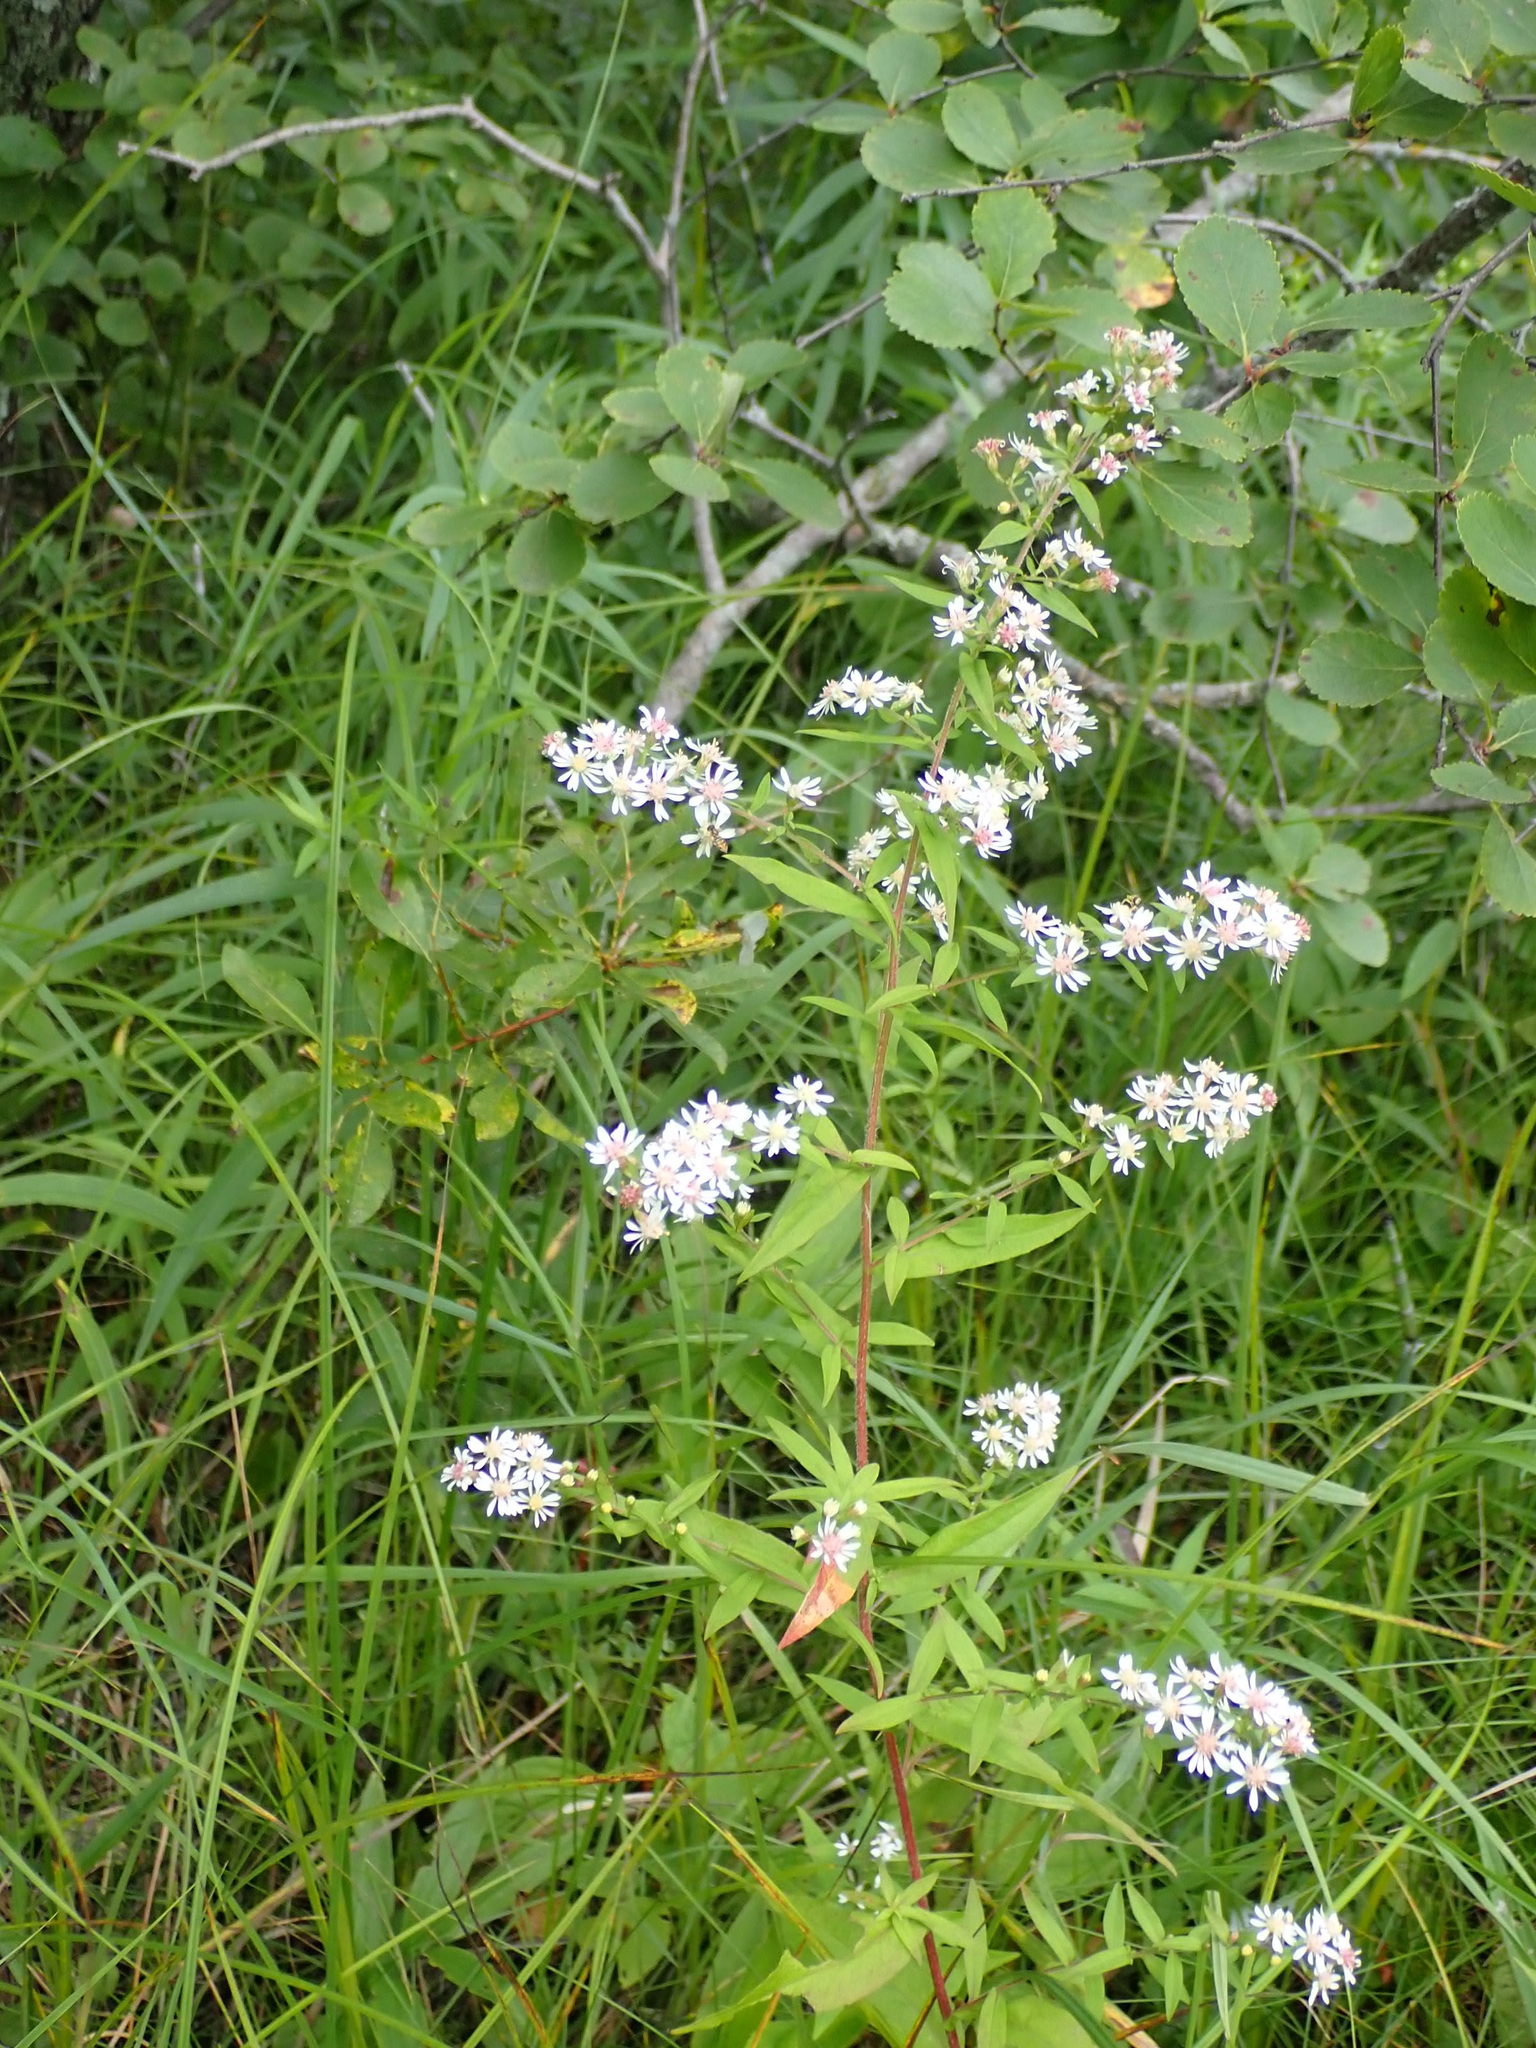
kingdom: Plantae
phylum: Tracheophyta
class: Magnoliopsida
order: Asterales
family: Asteraceae
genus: Symphyotrichum
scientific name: Symphyotrichum lateriflorum
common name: Calico aster
